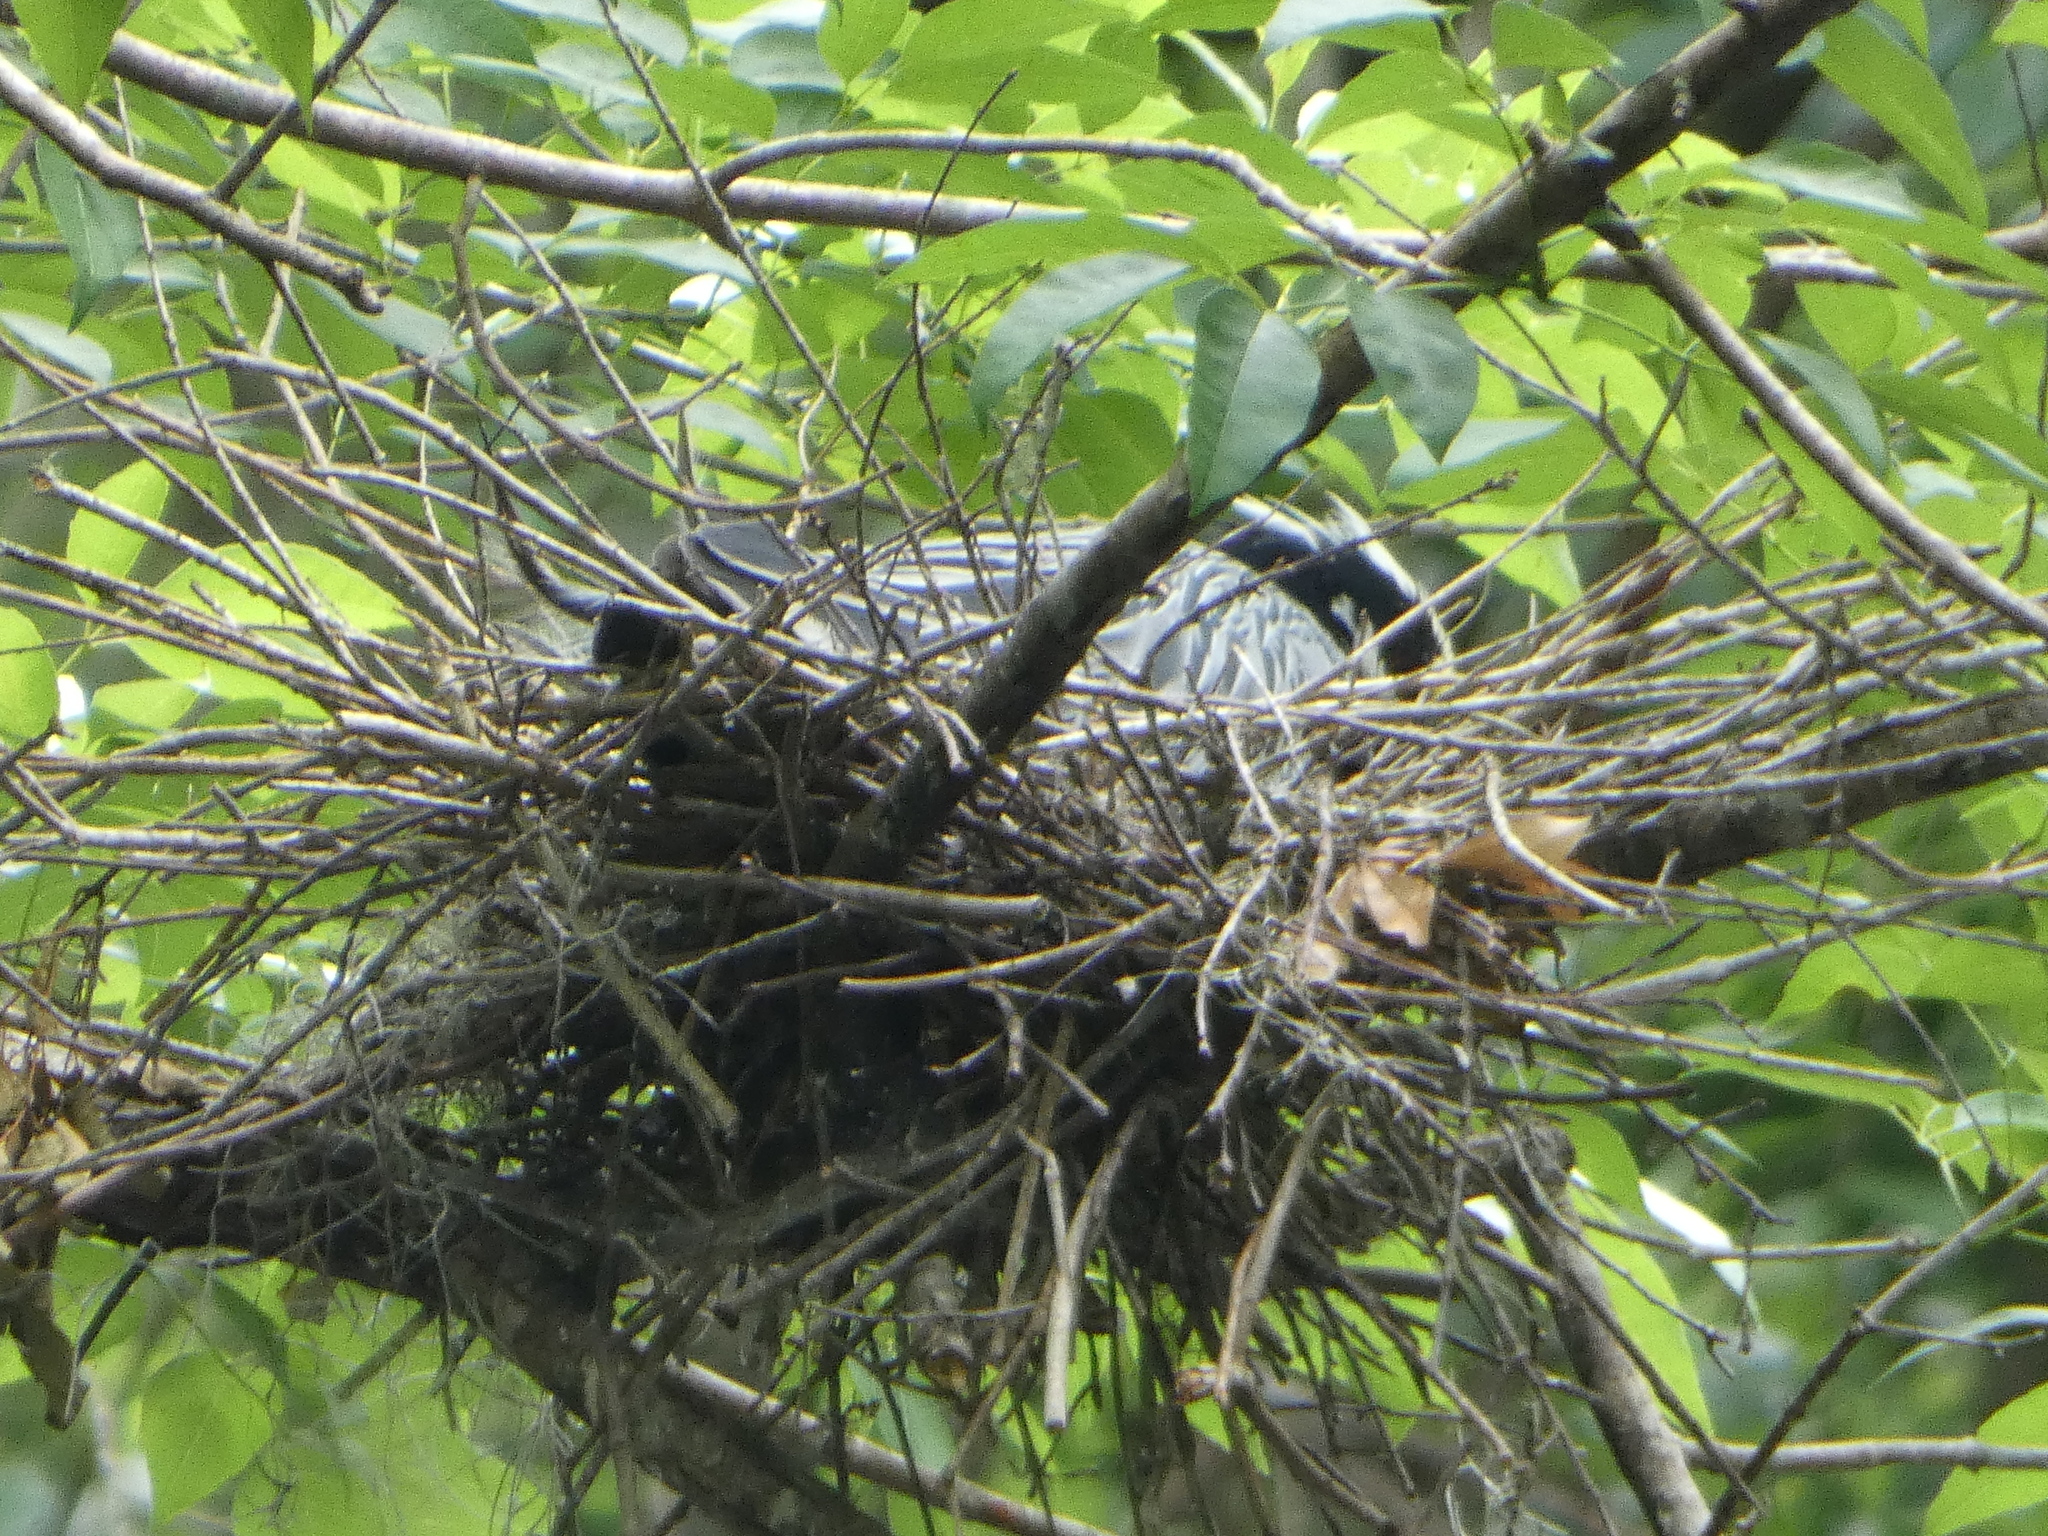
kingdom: Animalia
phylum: Chordata
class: Aves
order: Pelecaniformes
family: Ardeidae
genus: Nyctanassa
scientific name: Nyctanassa violacea
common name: Yellow-crowned night heron
